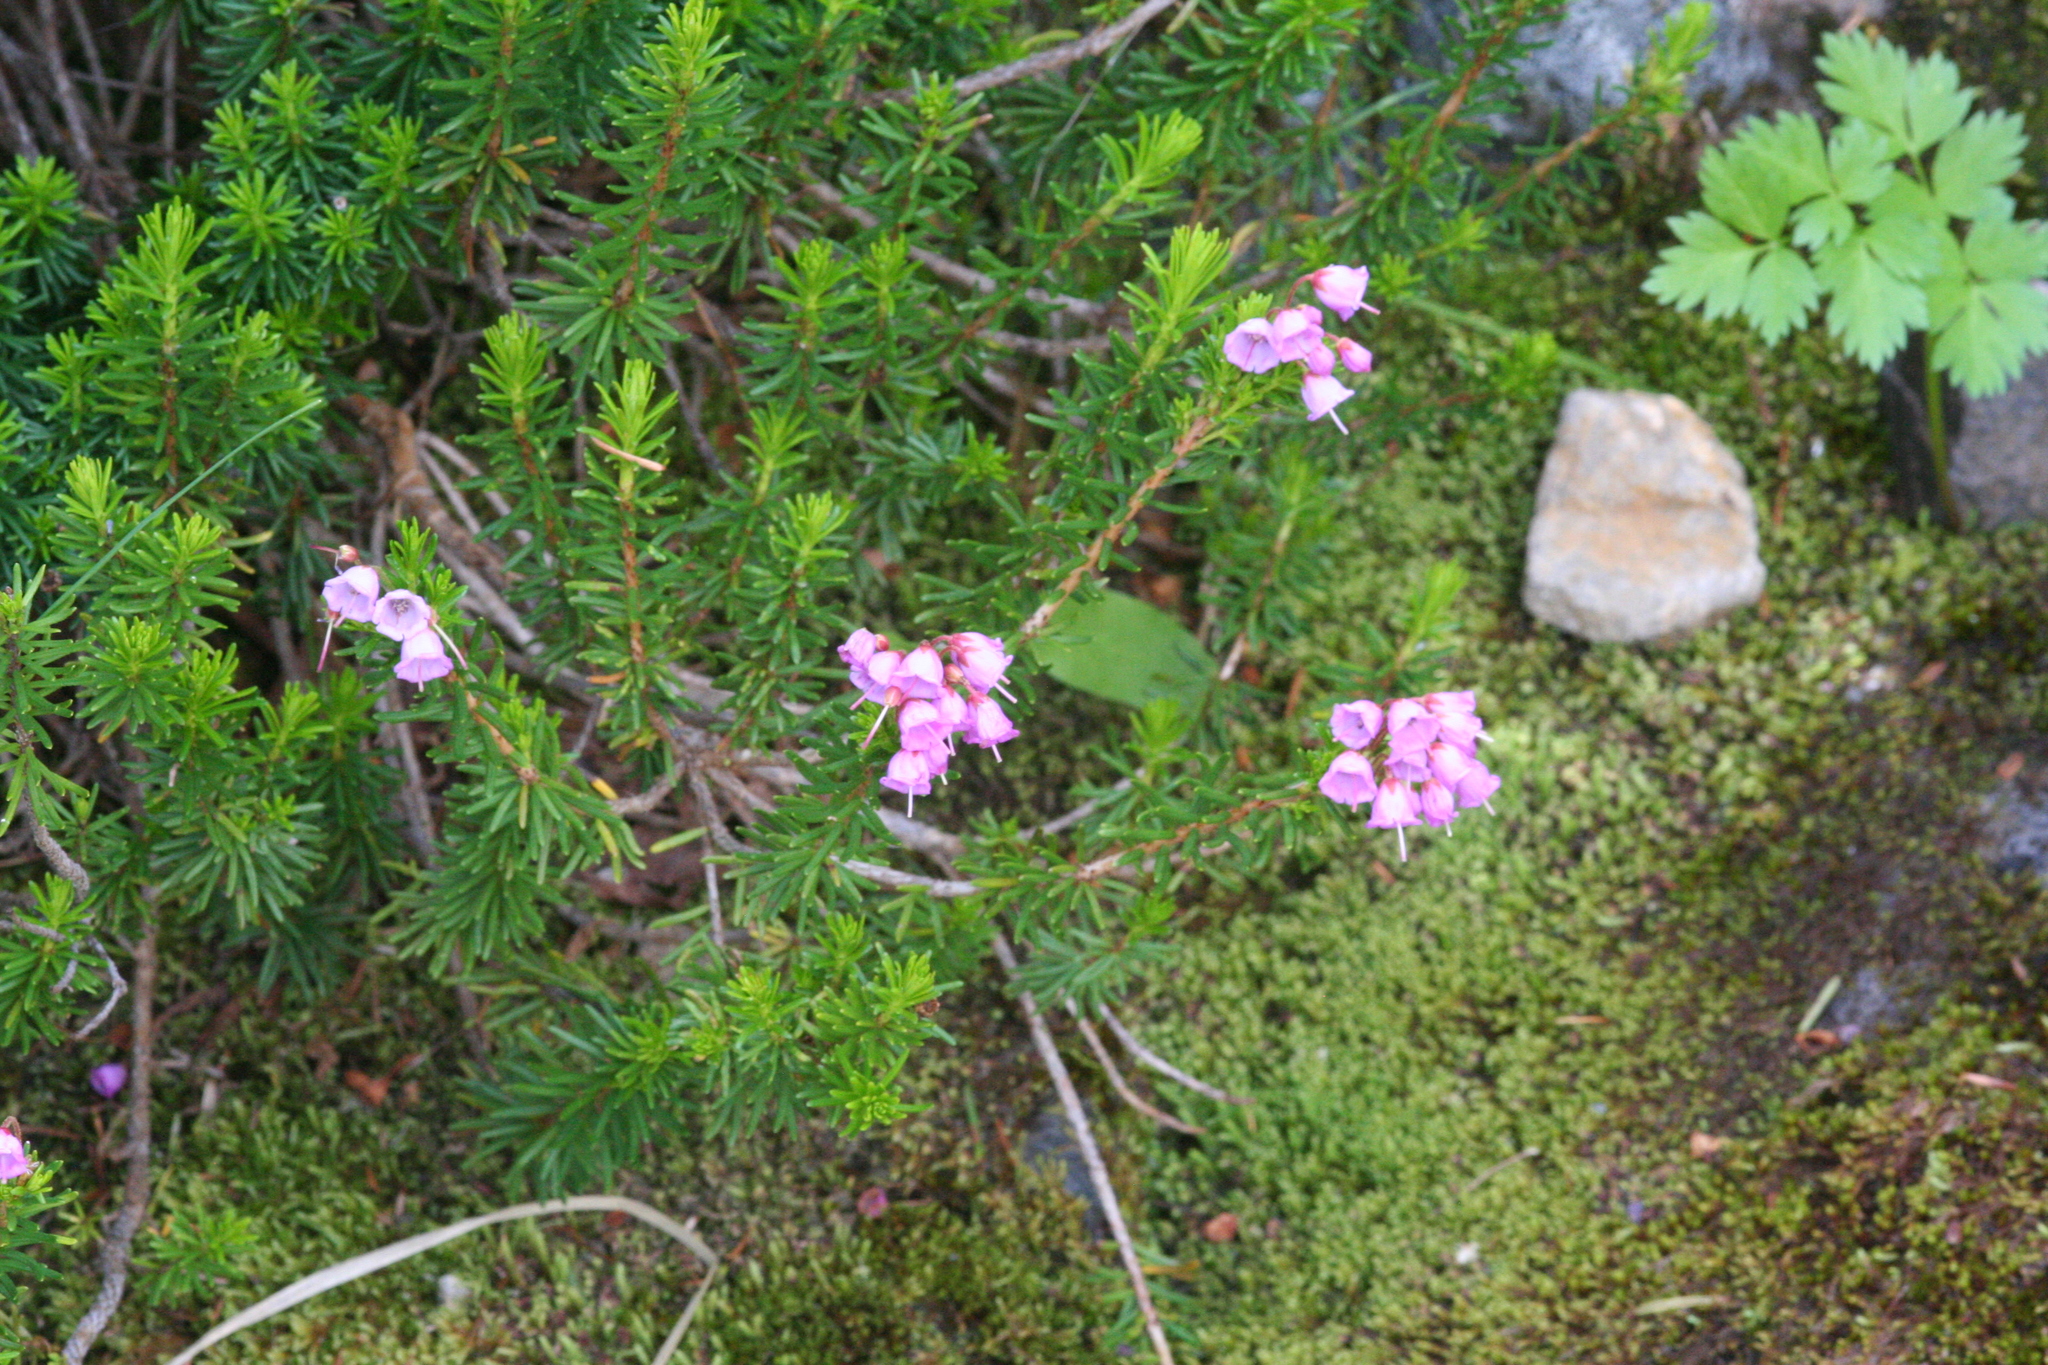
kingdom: Plantae
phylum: Tracheophyta
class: Magnoliopsida
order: Ericales
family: Ericaceae
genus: Phyllodoce
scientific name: Phyllodoce empetriformis
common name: Pink mountain heather
